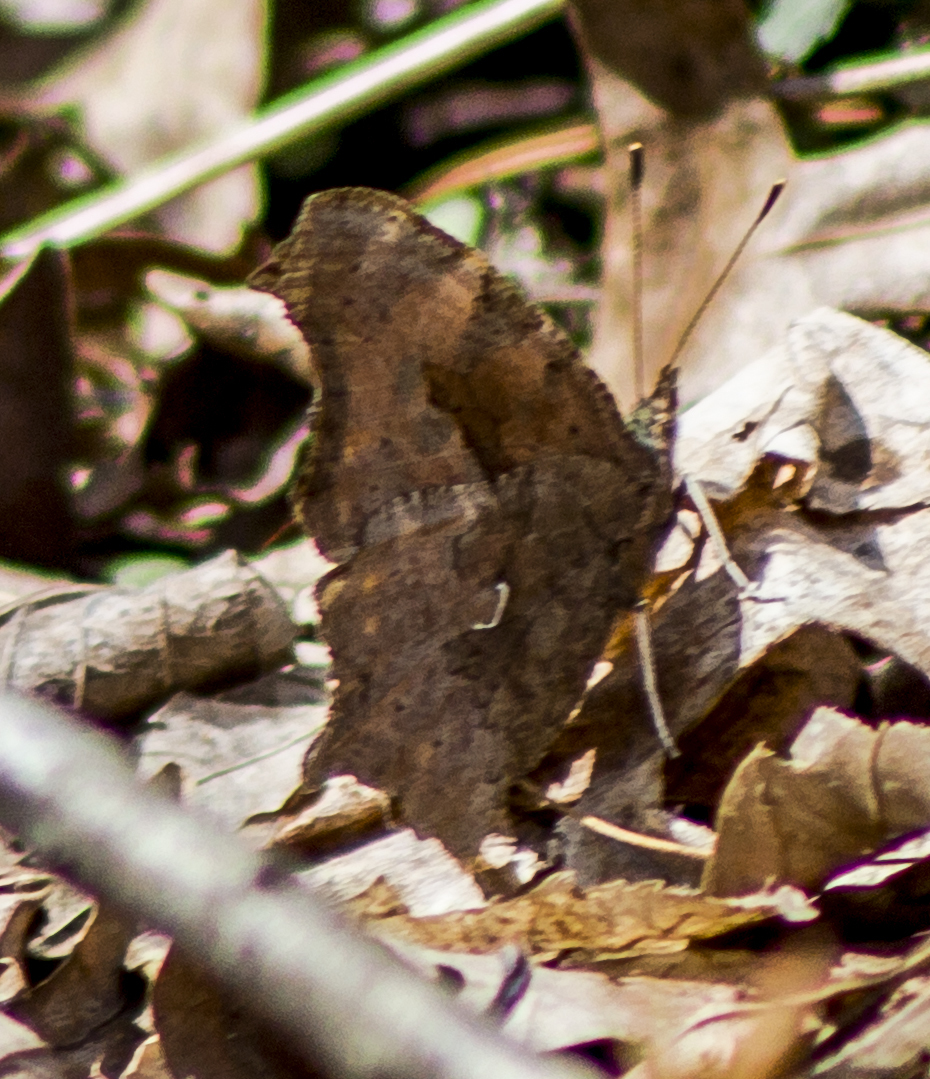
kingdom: Animalia
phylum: Arthropoda
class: Insecta
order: Lepidoptera
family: Nymphalidae
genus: Polygonia
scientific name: Polygonia comma
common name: Eastern comma
